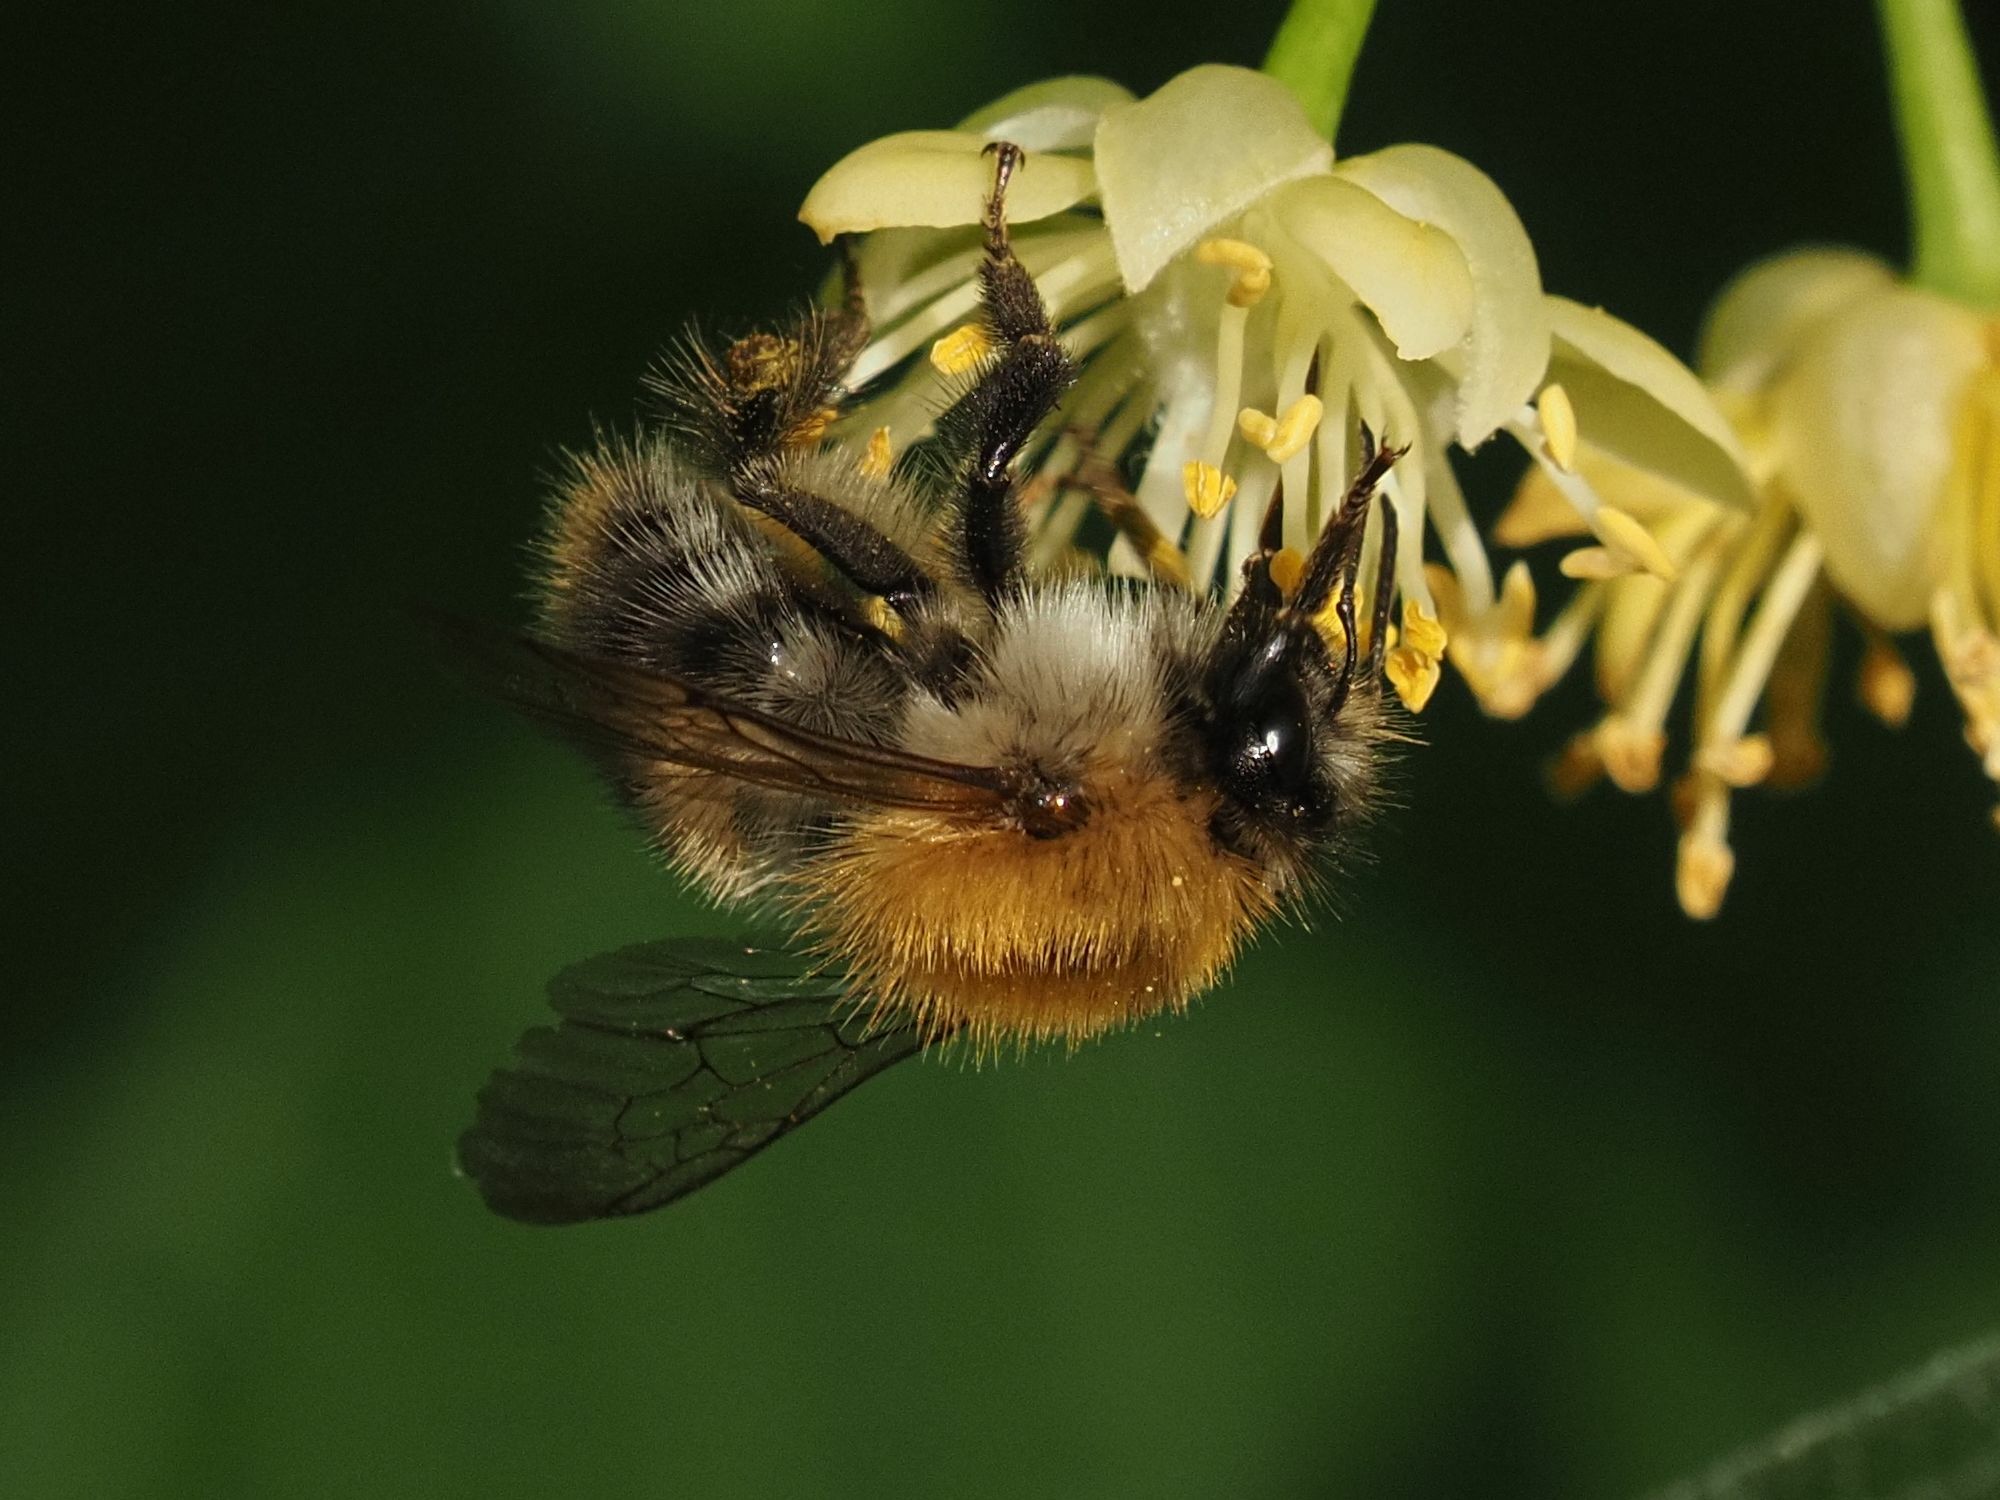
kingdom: Animalia
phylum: Arthropoda
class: Insecta
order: Hymenoptera
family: Apidae
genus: Bombus
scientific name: Bombus pascuorum
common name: Common carder bee
